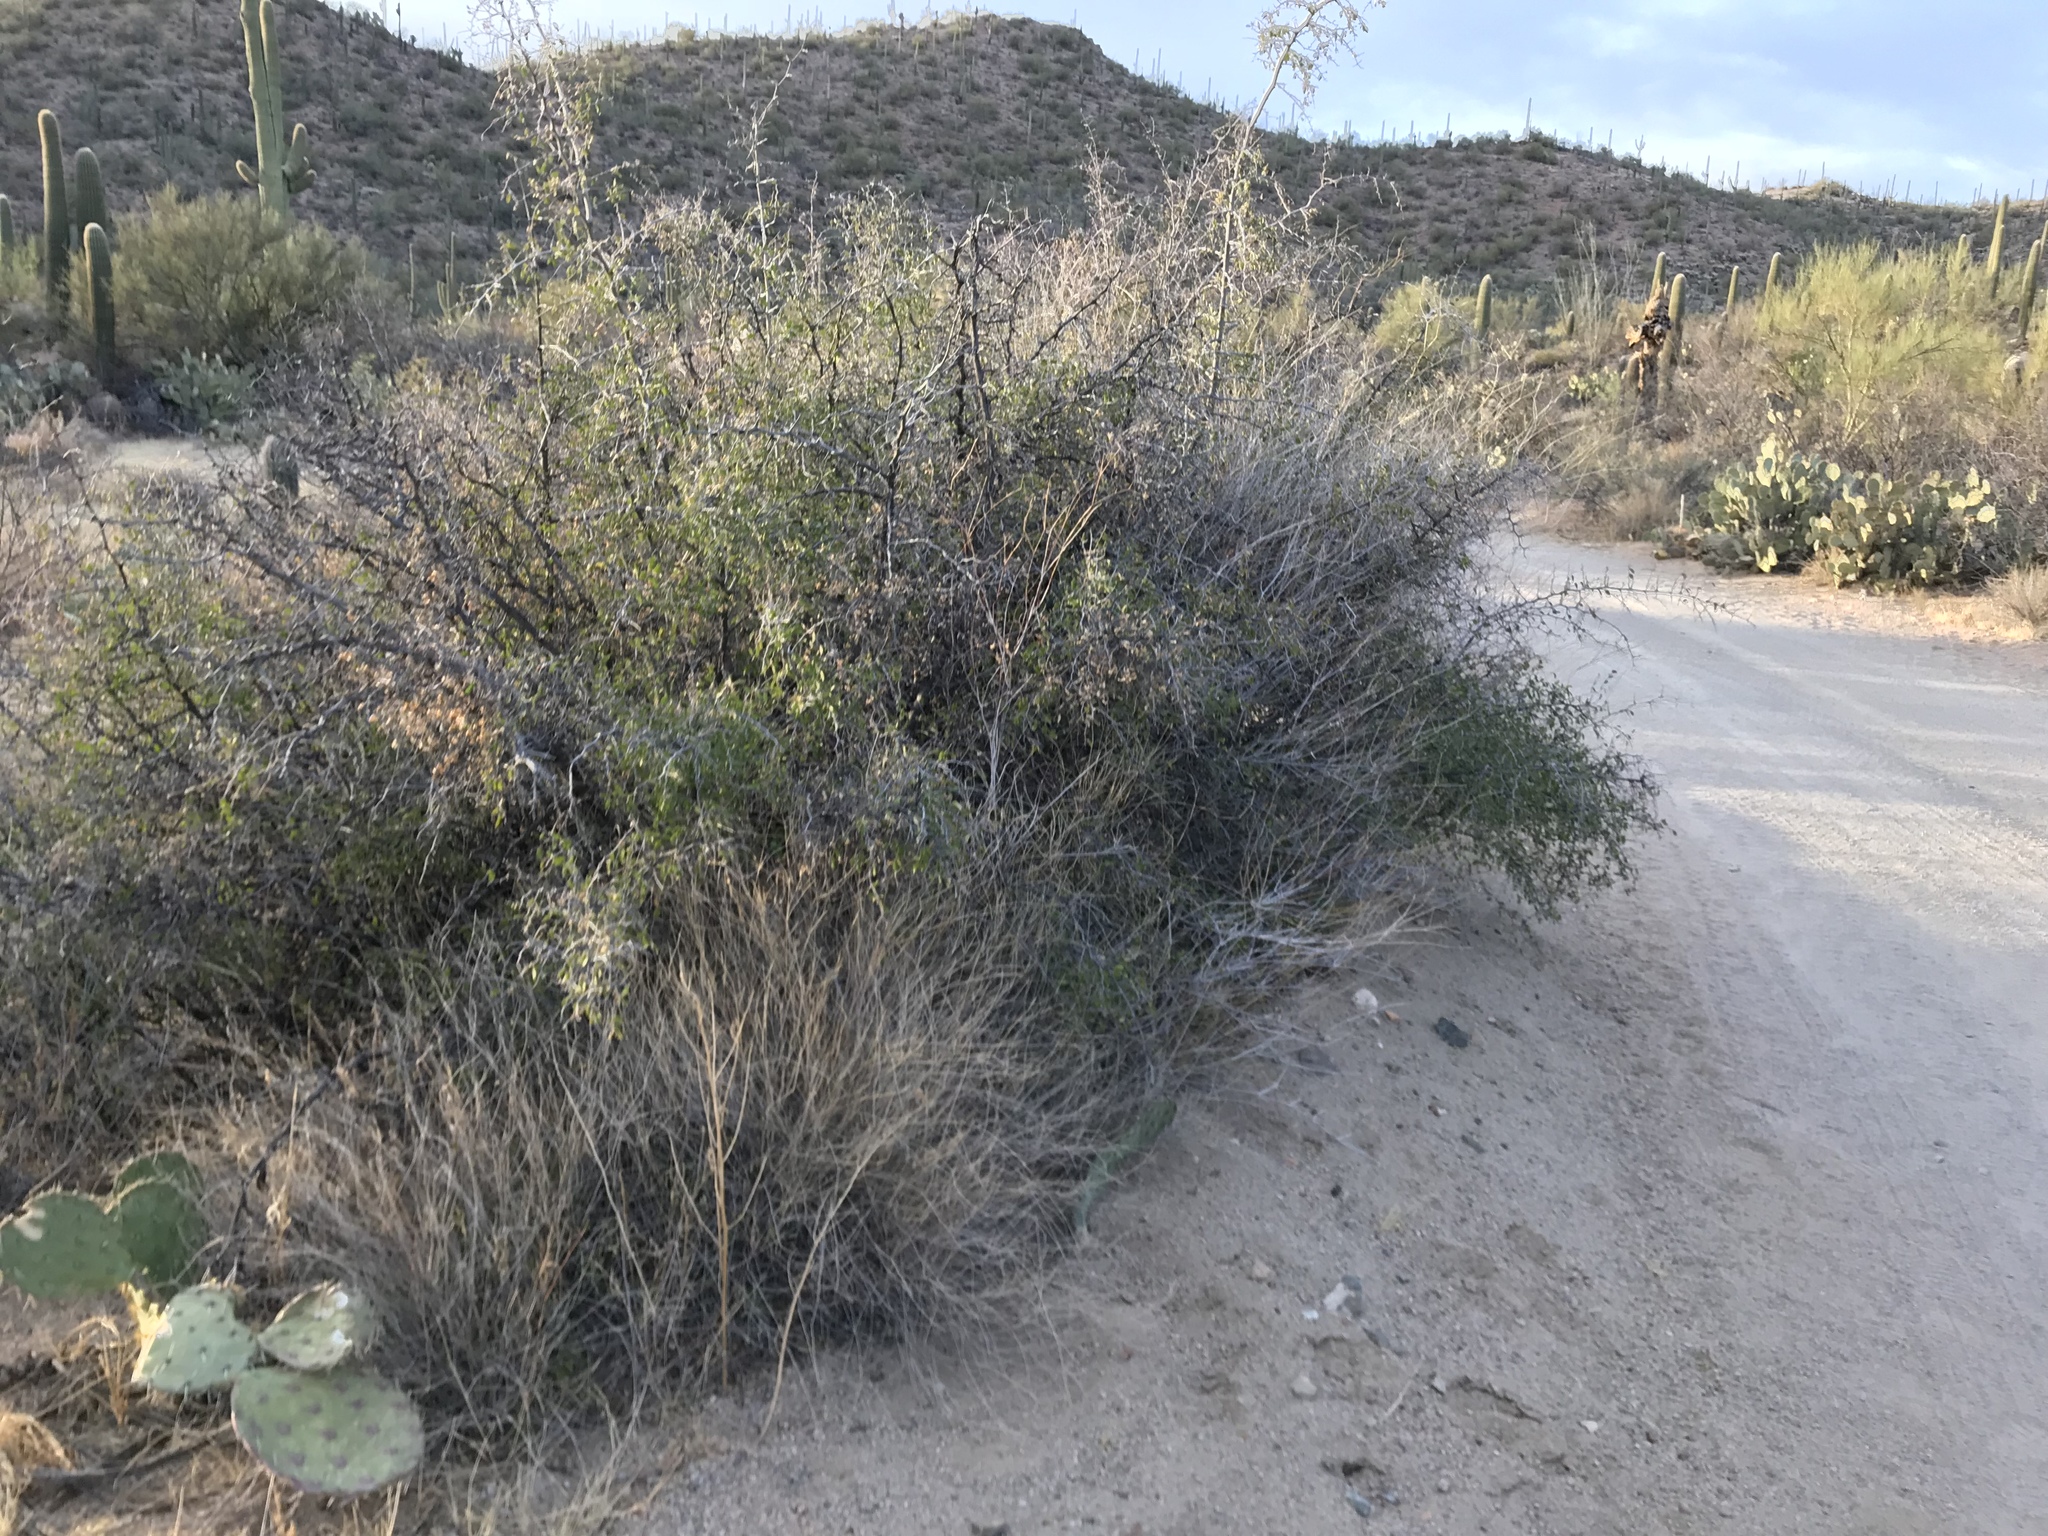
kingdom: Plantae
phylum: Tracheophyta
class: Magnoliopsida
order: Rosales
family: Cannabaceae
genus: Celtis
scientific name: Celtis pallida
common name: Desert hackberry
